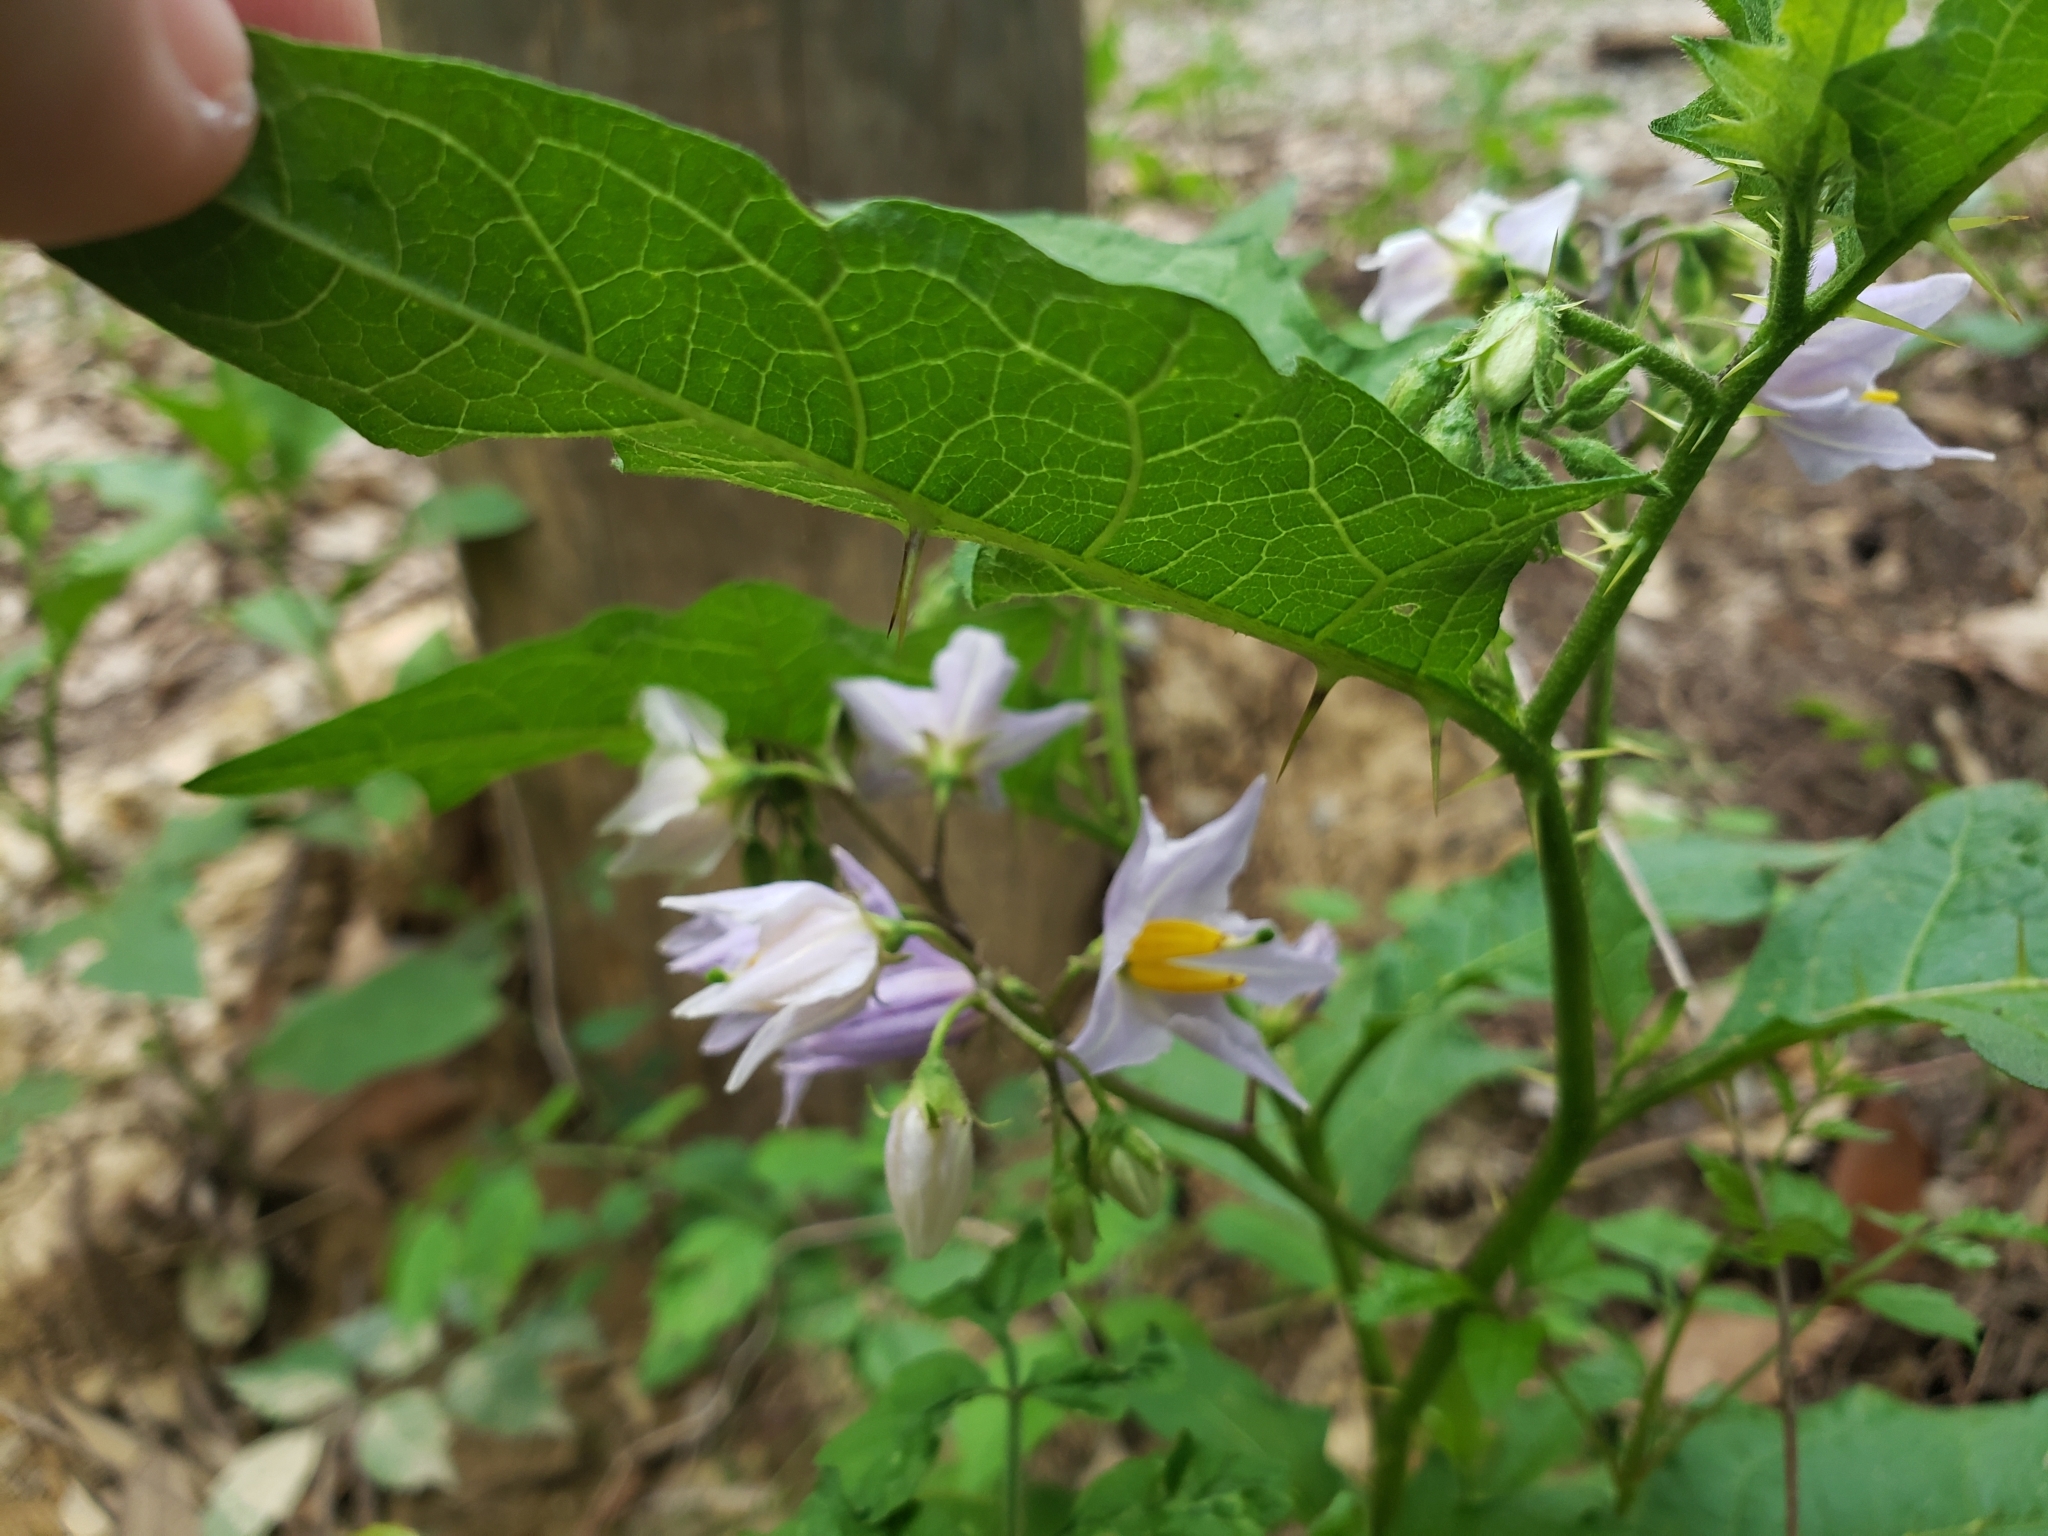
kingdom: Plantae
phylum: Tracheophyta
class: Magnoliopsida
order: Solanales
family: Solanaceae
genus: Solanum
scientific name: Solanum carolinense
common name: Horse-nettle
